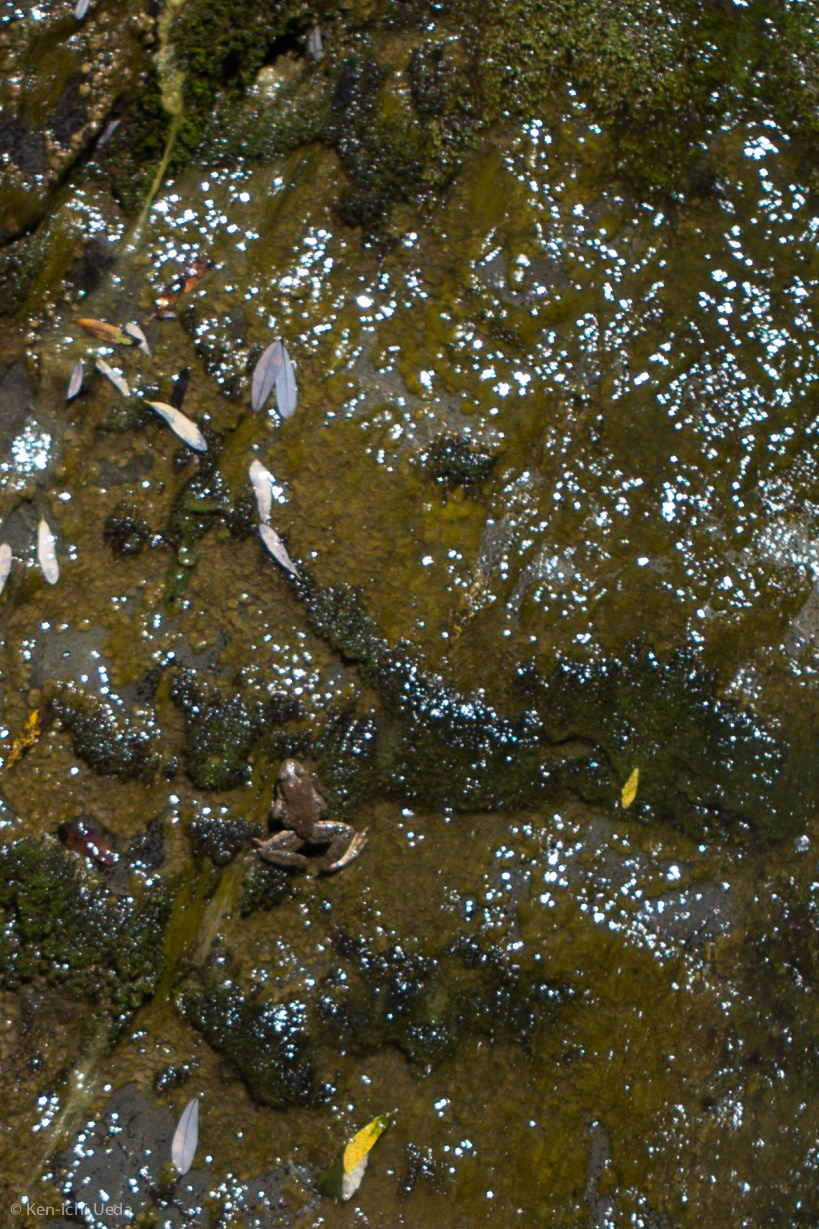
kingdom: Animalia
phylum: Chordata
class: Amphibia
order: Anura
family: Ranidae
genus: Rana
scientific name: Rana boylii
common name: Foothill yellow-legged frog
